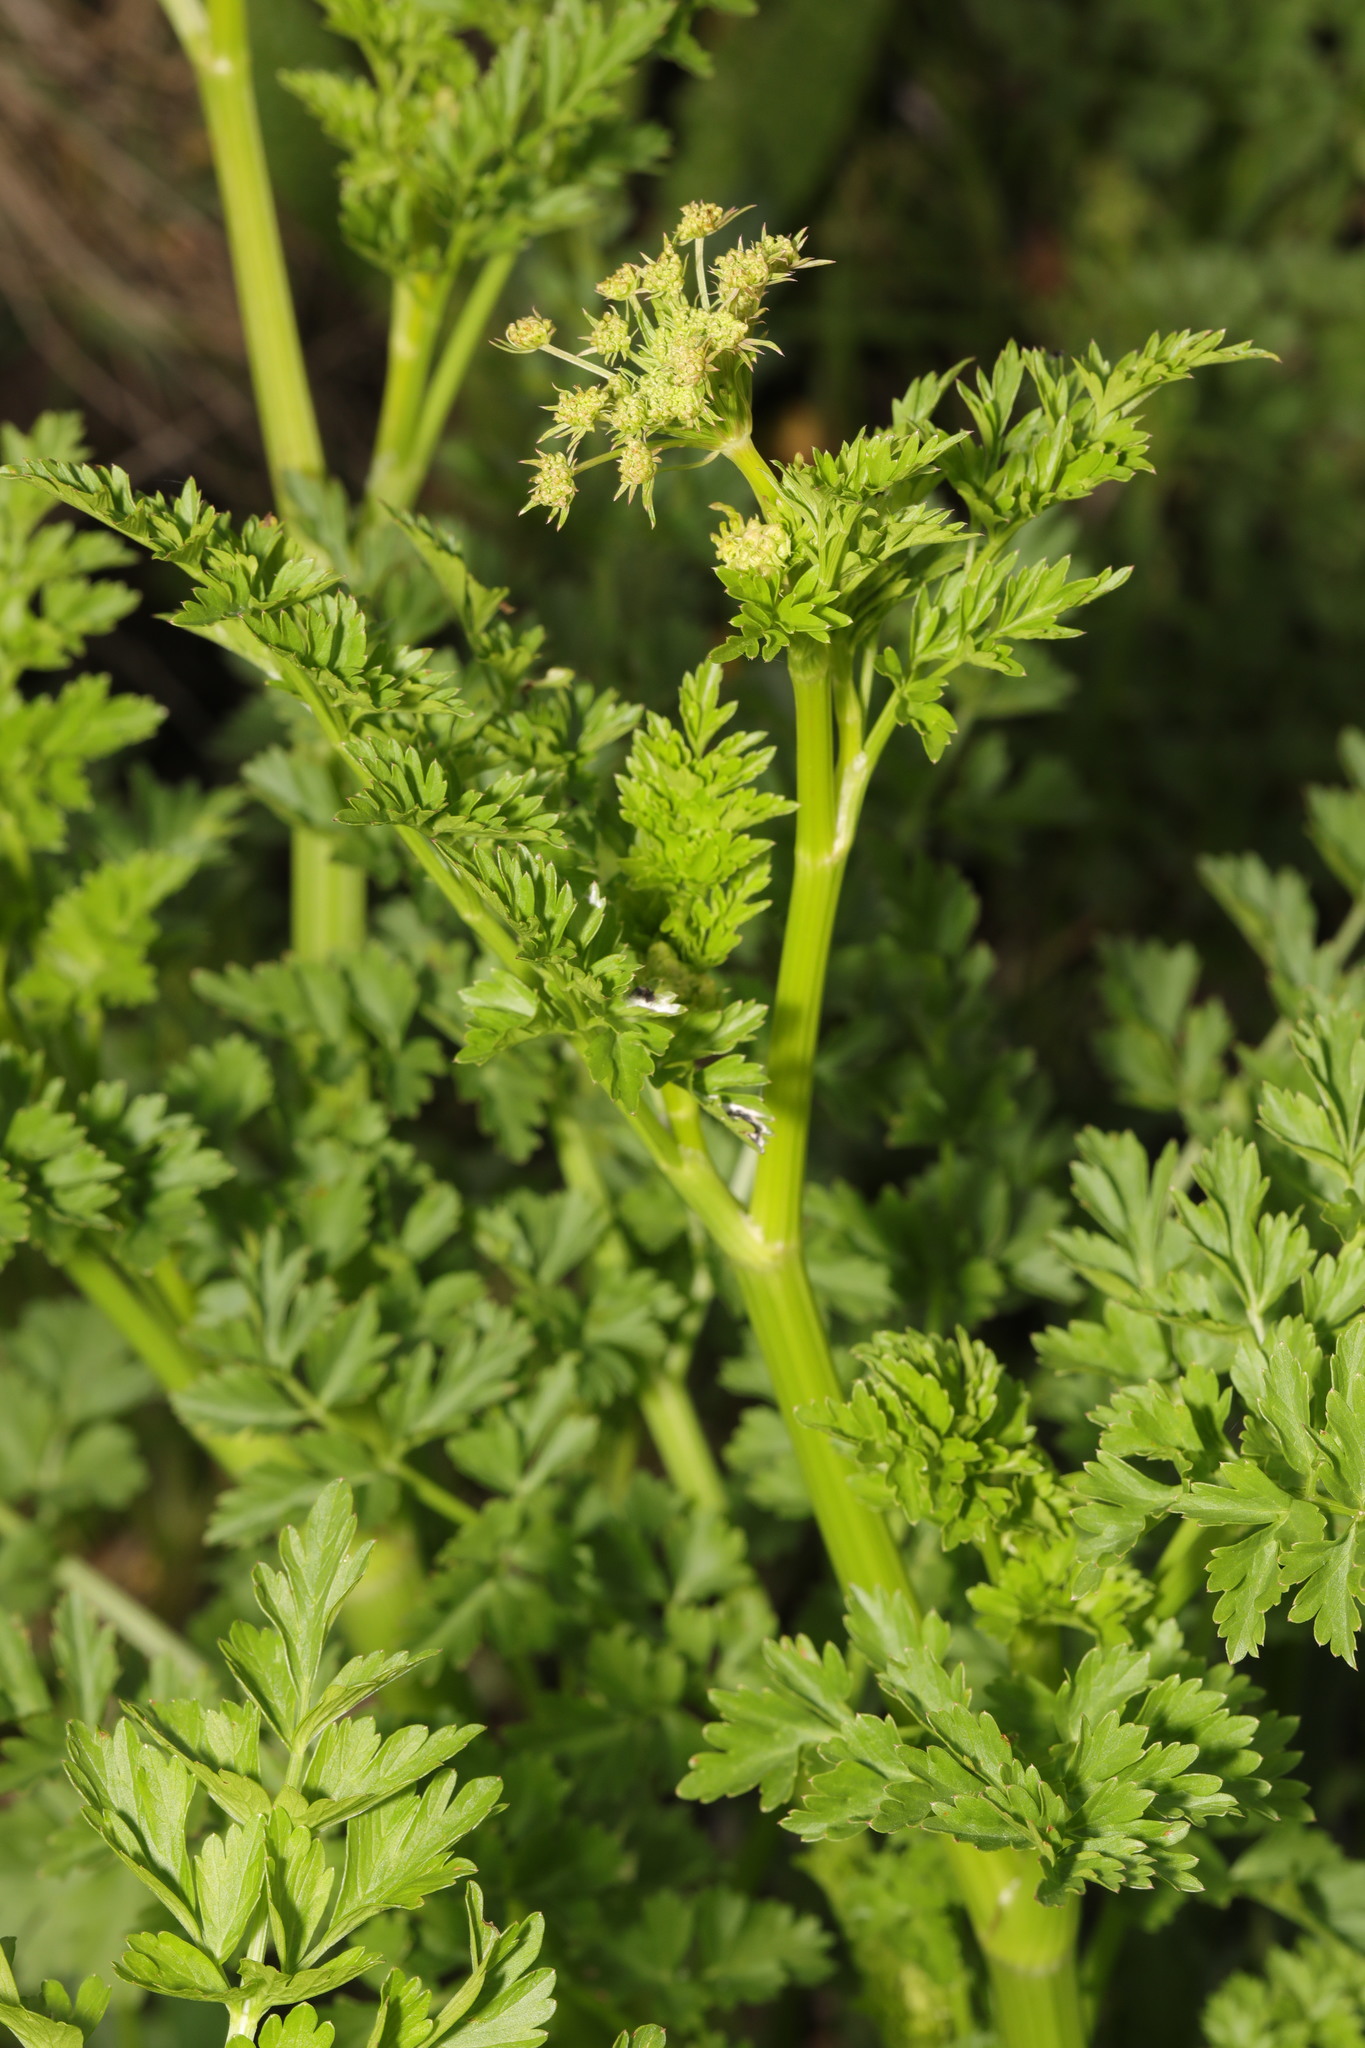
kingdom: Plantae
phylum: Tracheophyta
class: Magnoliopsida
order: Apiales
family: Apiaceae
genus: Oenanthe
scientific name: Oenanthe crocata
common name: Hemlock water-dropwort
